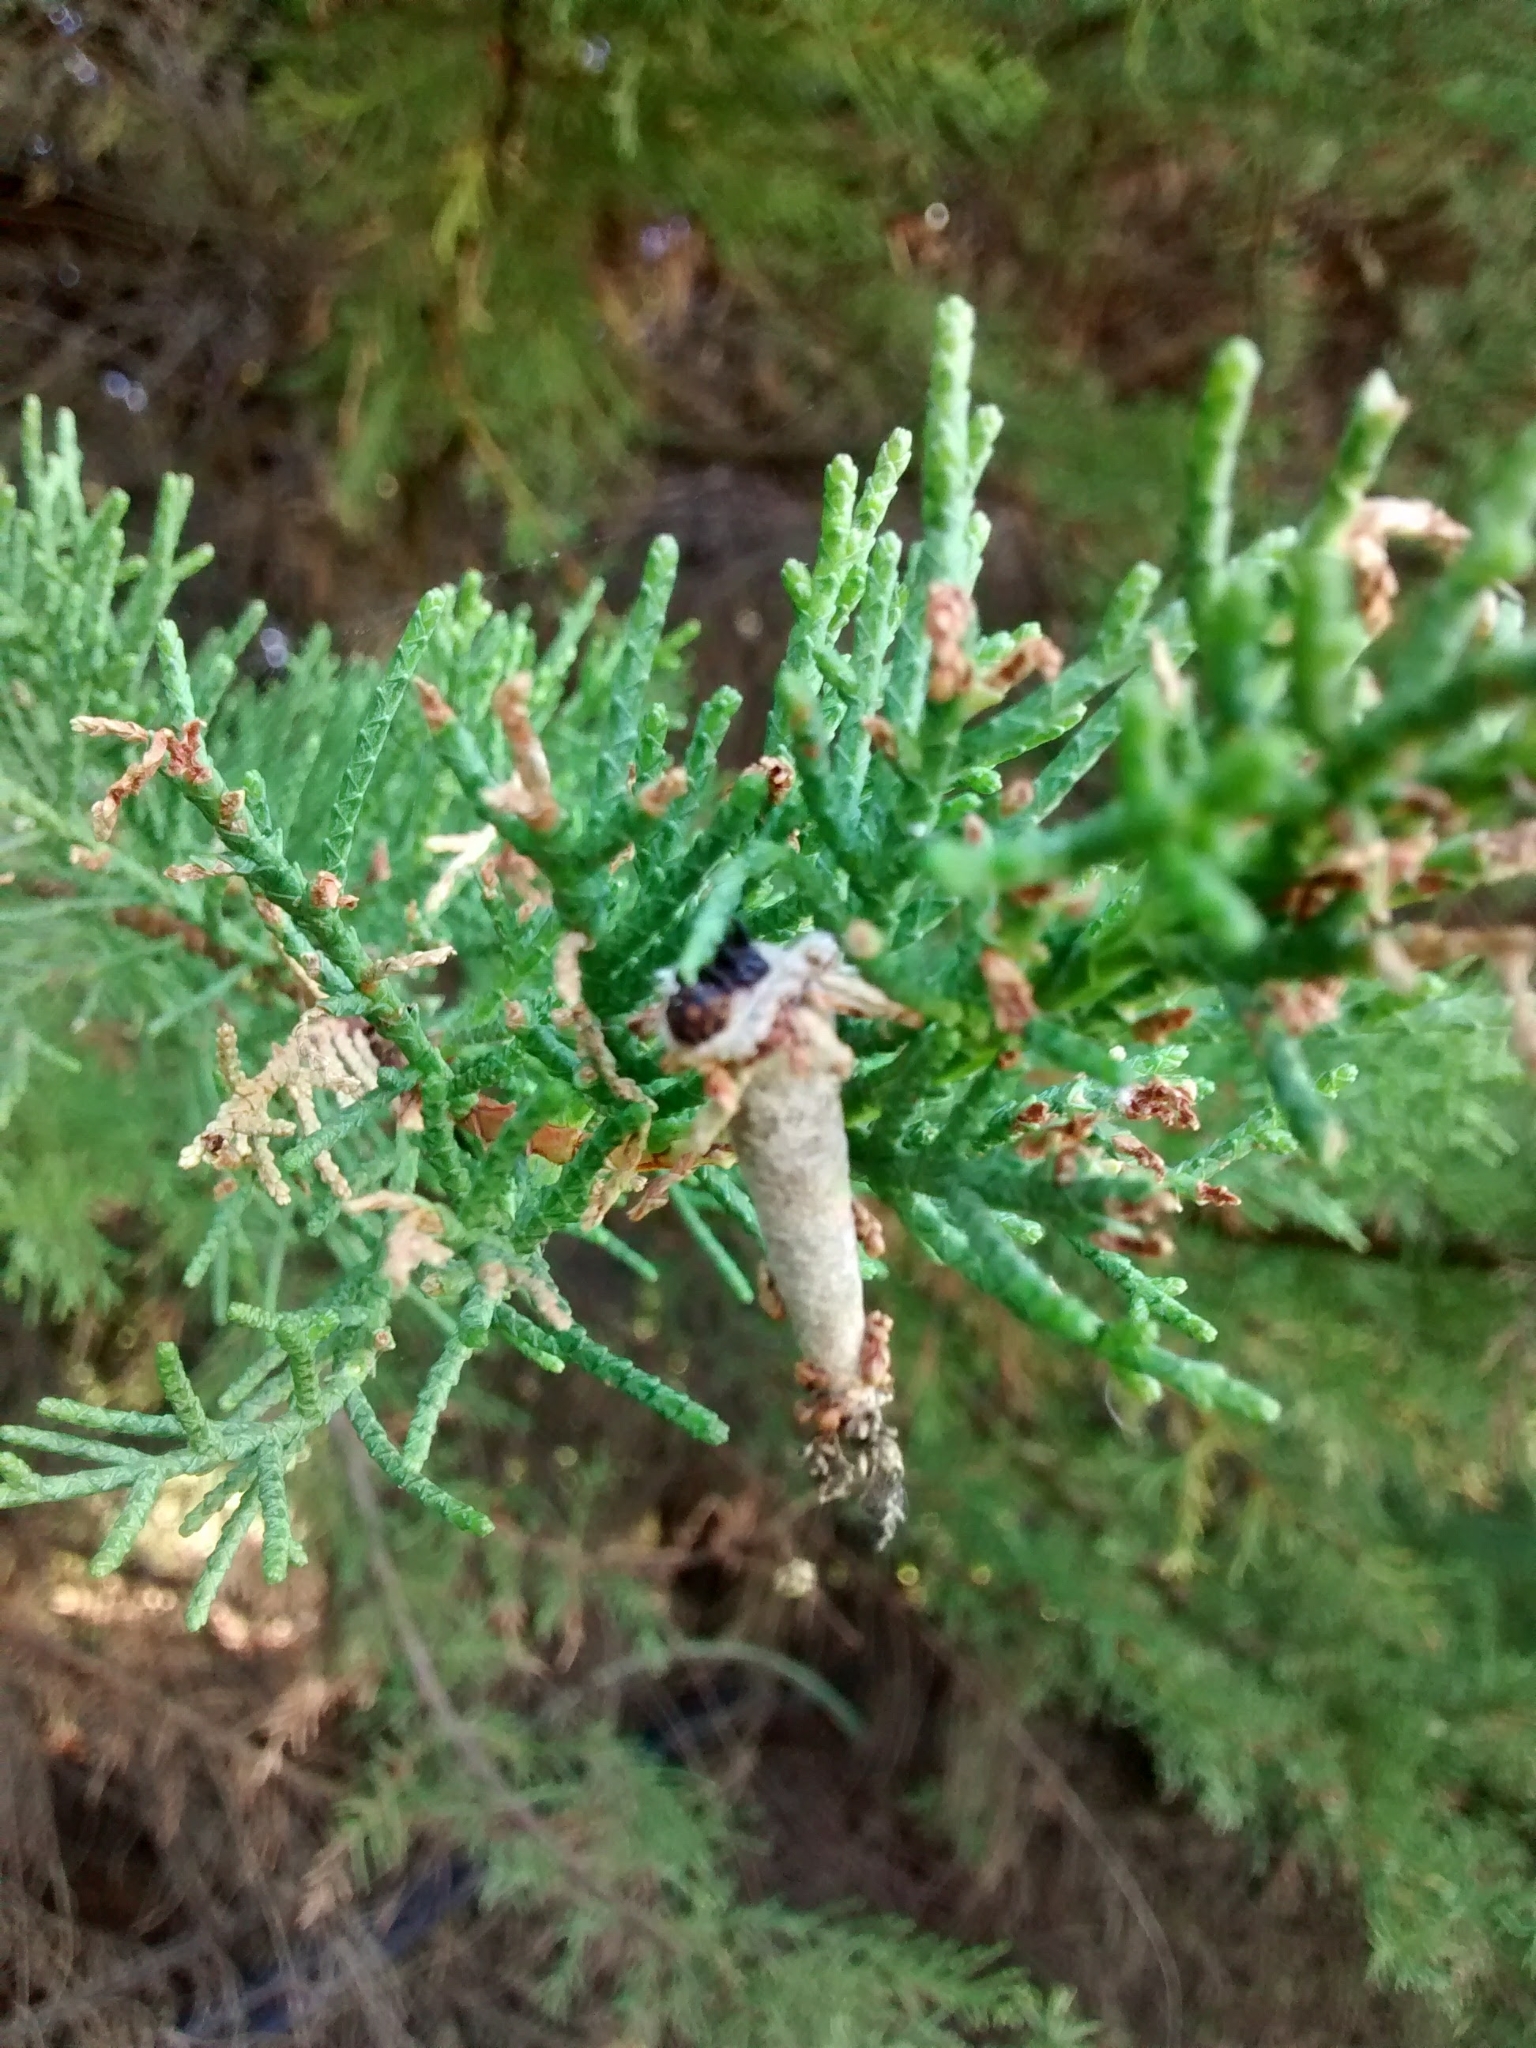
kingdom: Animalia
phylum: Arthropoda
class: Insecta
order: Lepidoptera
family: Psychidae
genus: Oiketicus
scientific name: Oiketicus geyeri
